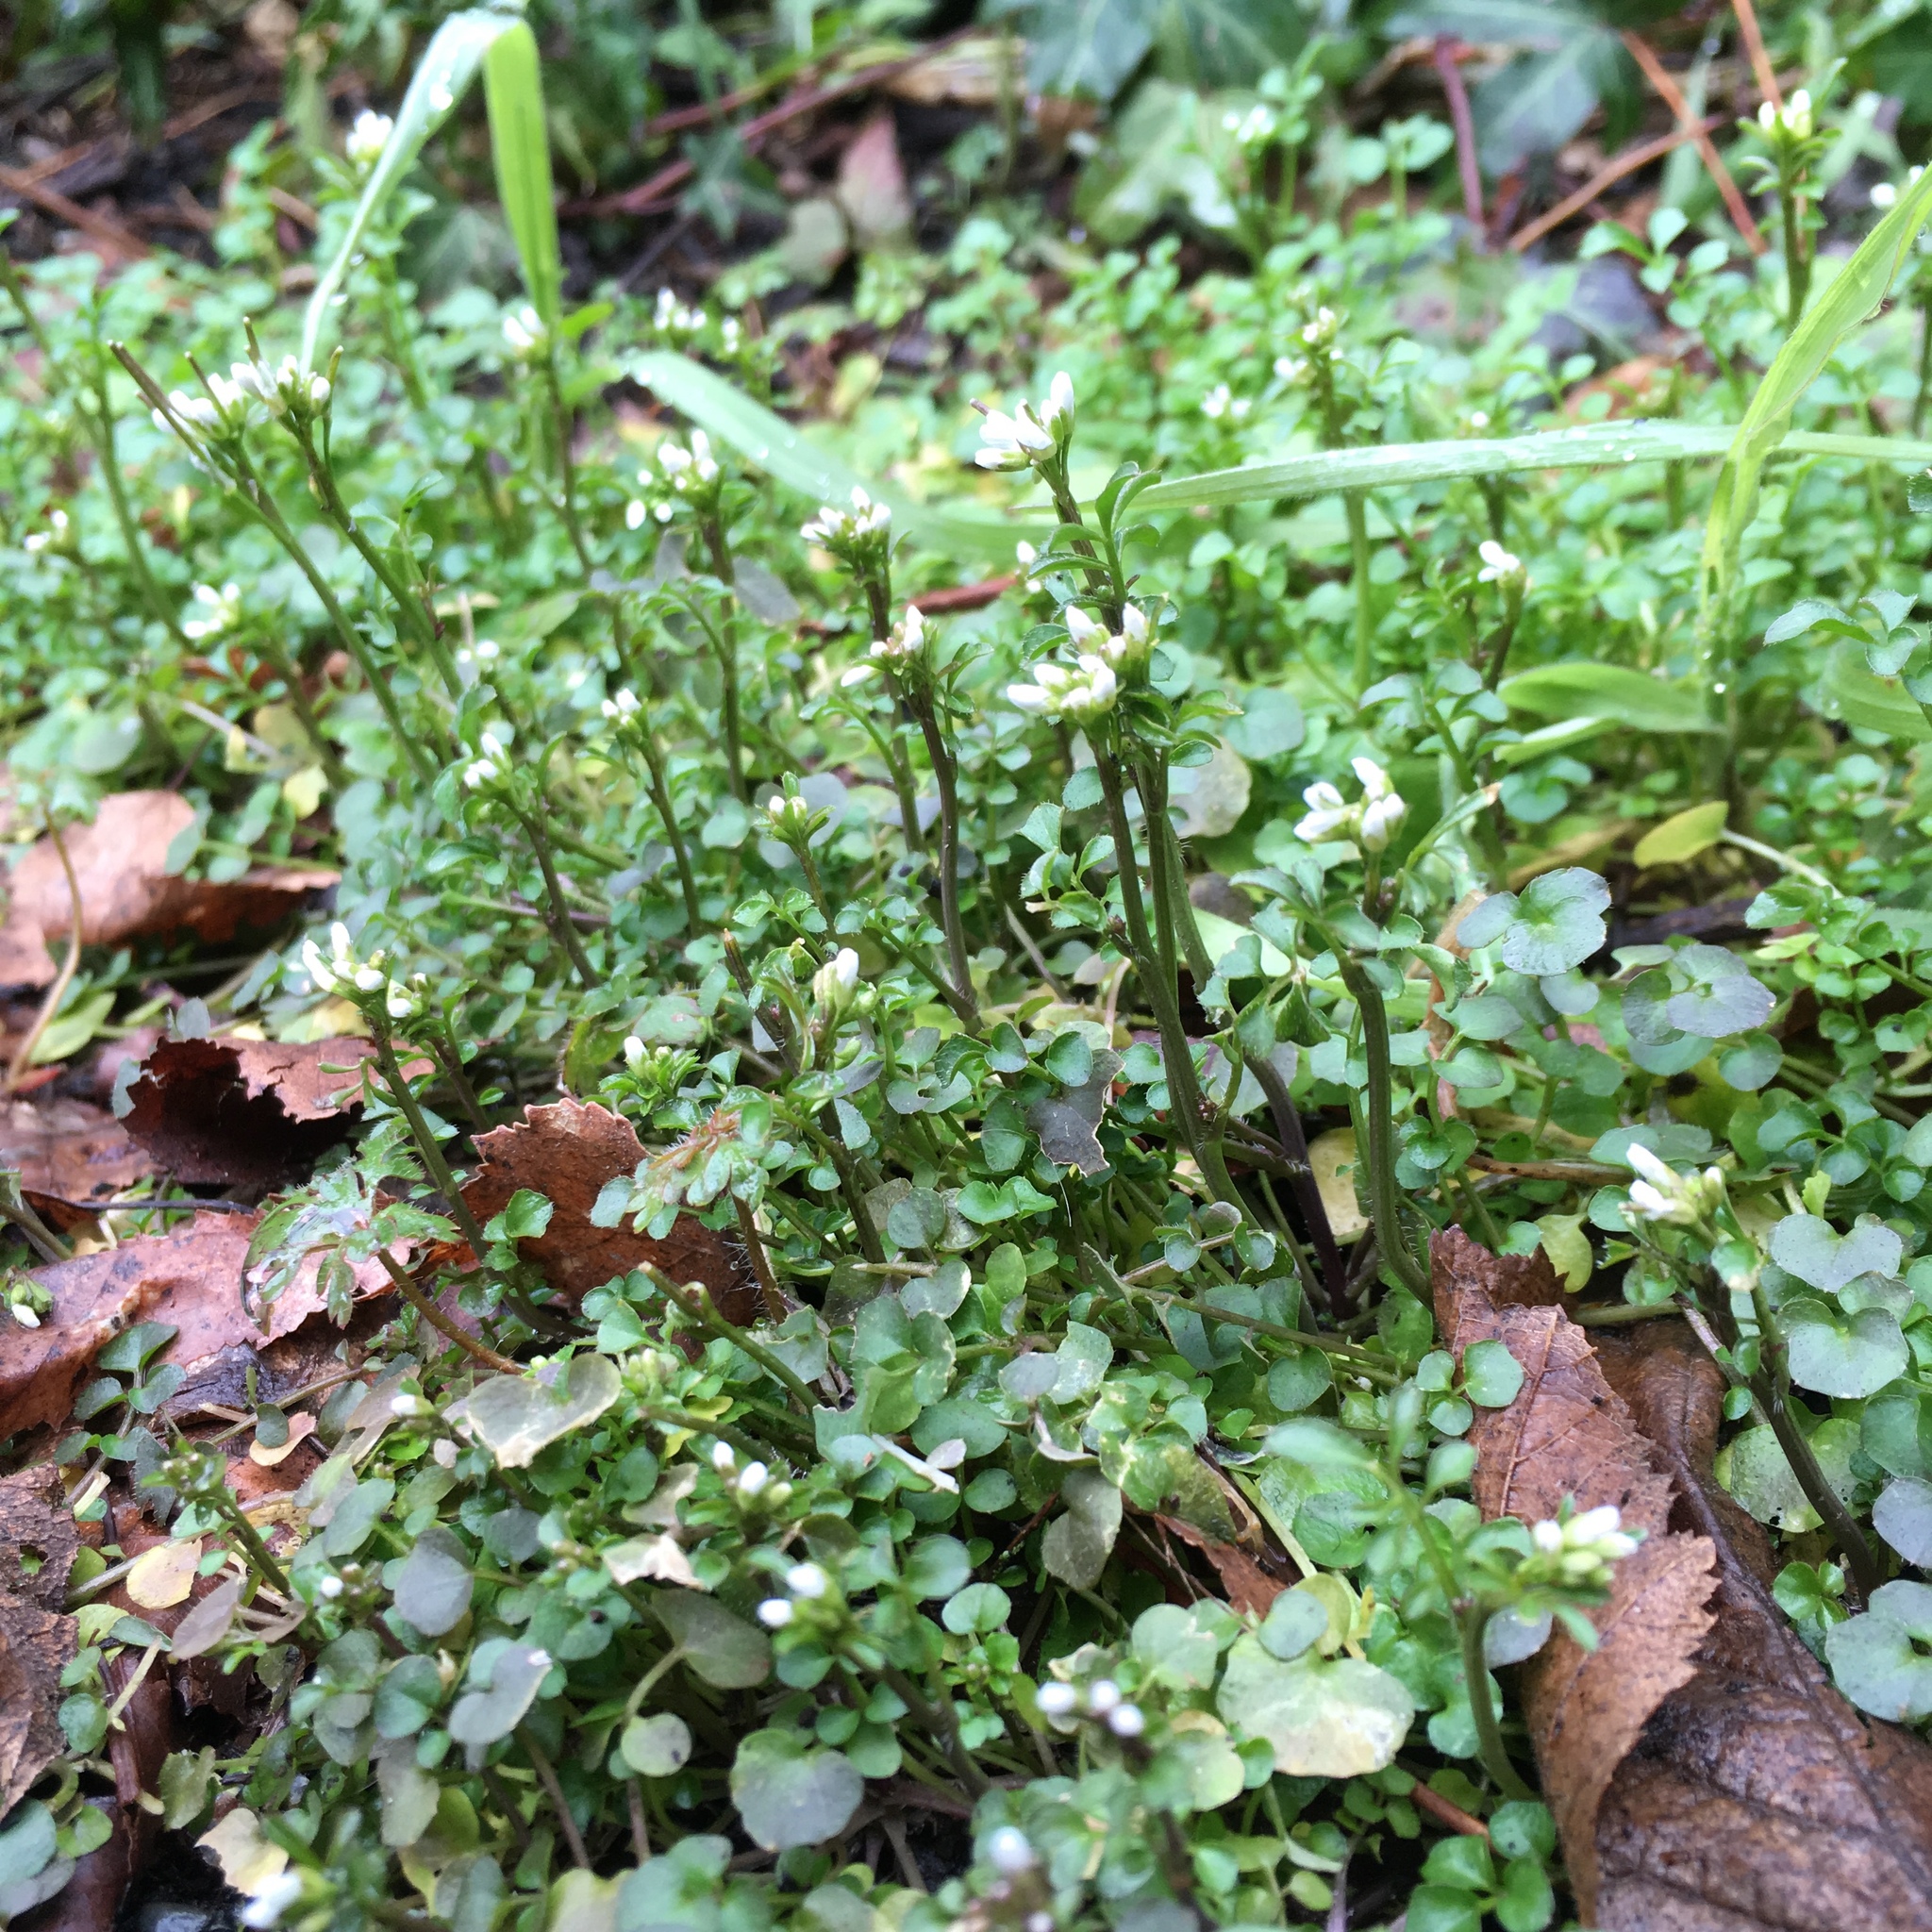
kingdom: Plantae
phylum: Tracheophyta
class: Magnoliopsida
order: Brassicales
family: Brassicaceae
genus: Cardamine
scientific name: Cardamine hirsuta
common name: Hairy bittercress
